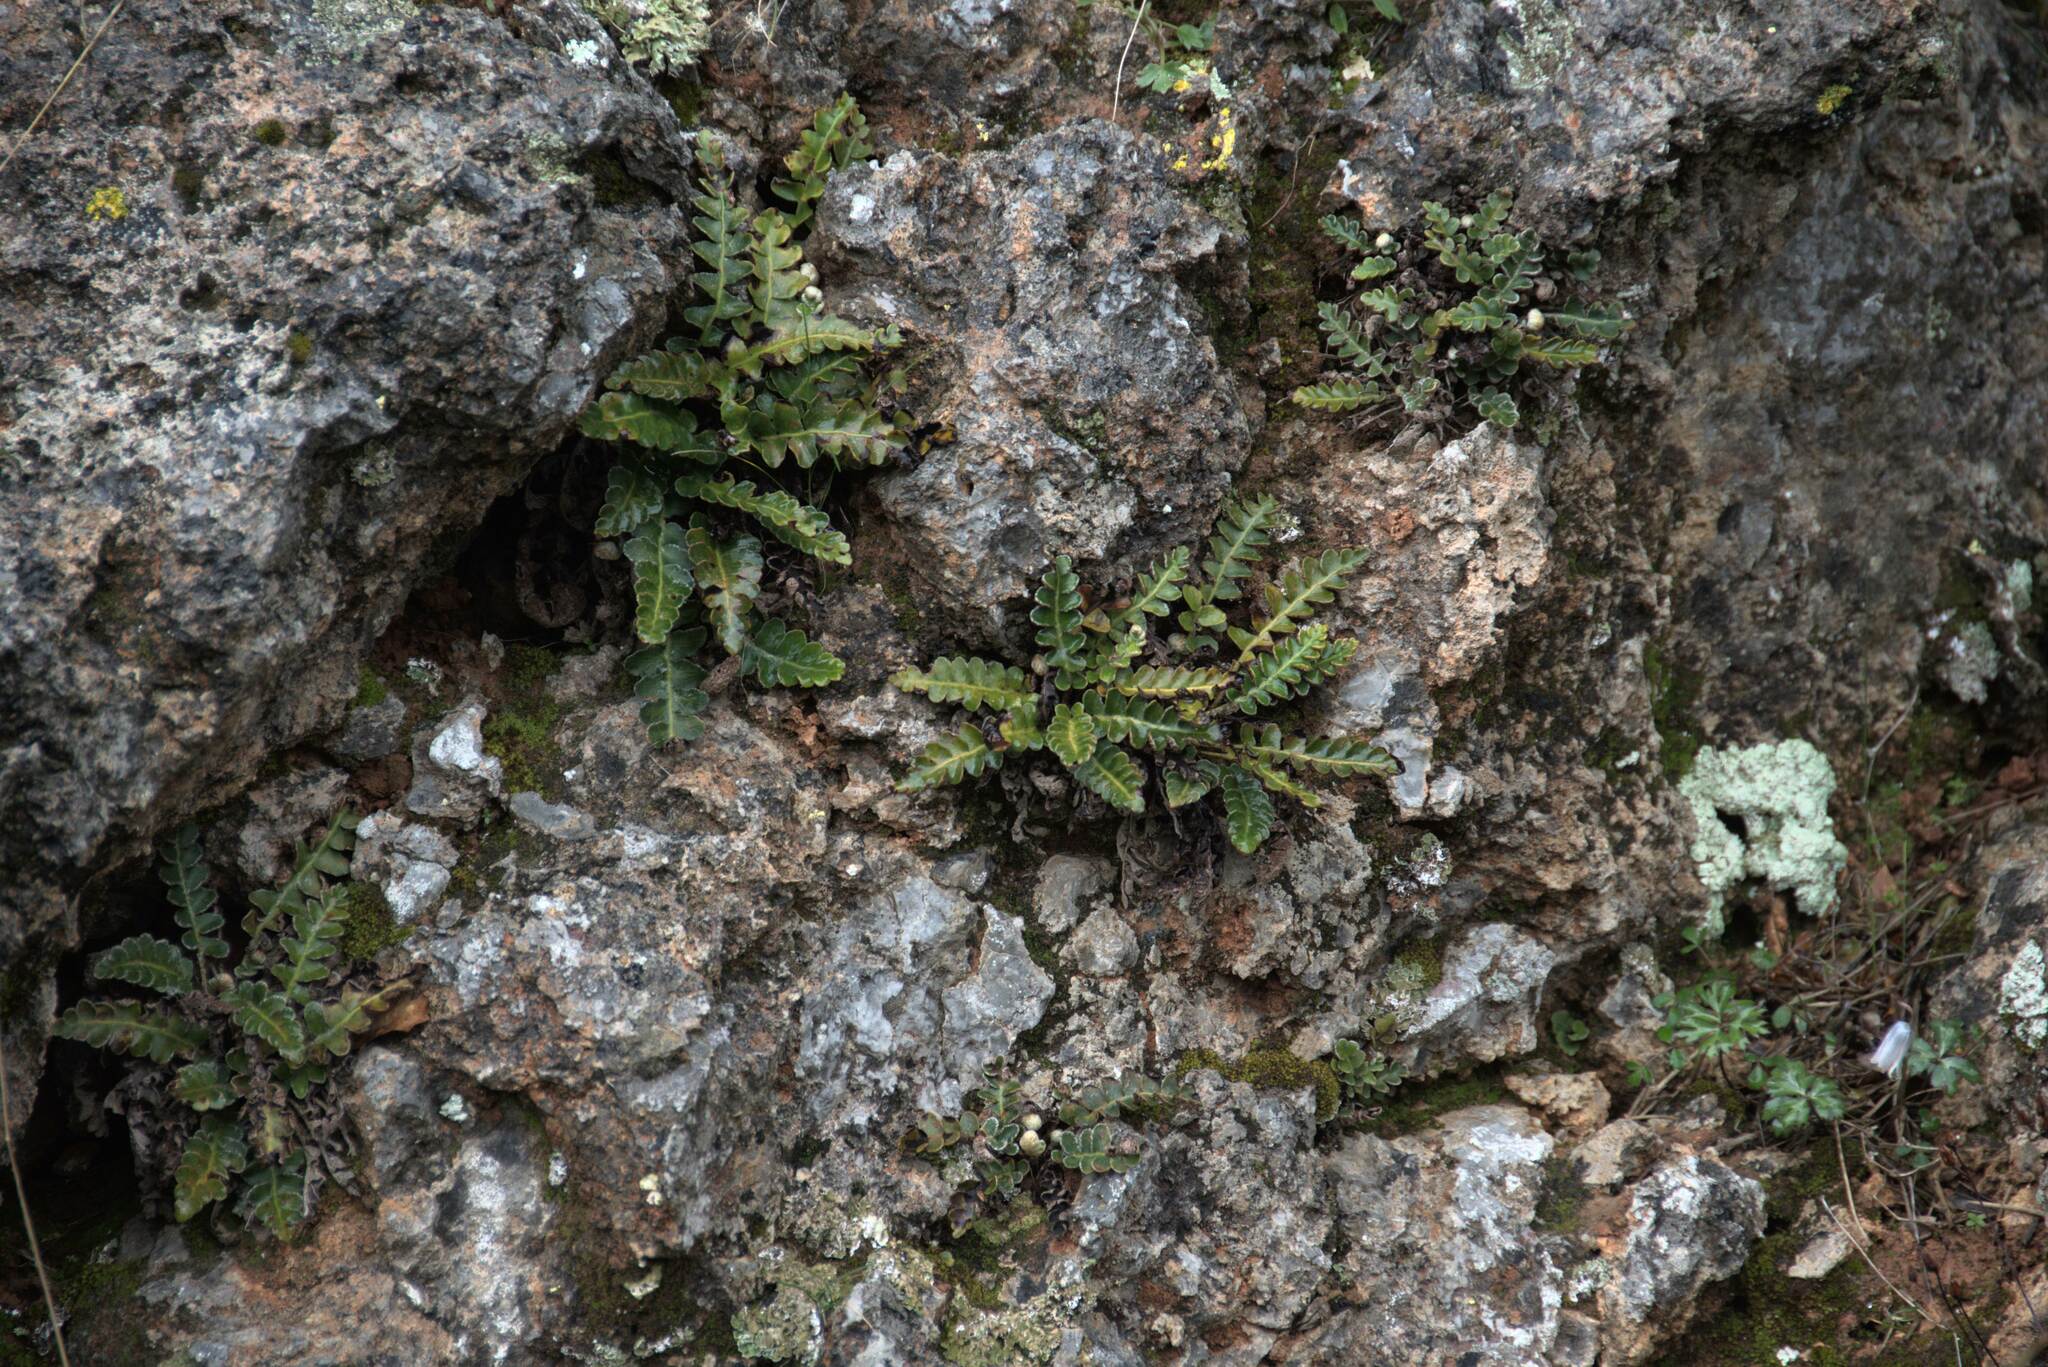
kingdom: Plantae
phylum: Tracheophyta
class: Polypodiopsida
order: Polypodiales
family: Aspleniaceae
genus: Asplenium
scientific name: Asplenium ceterach
